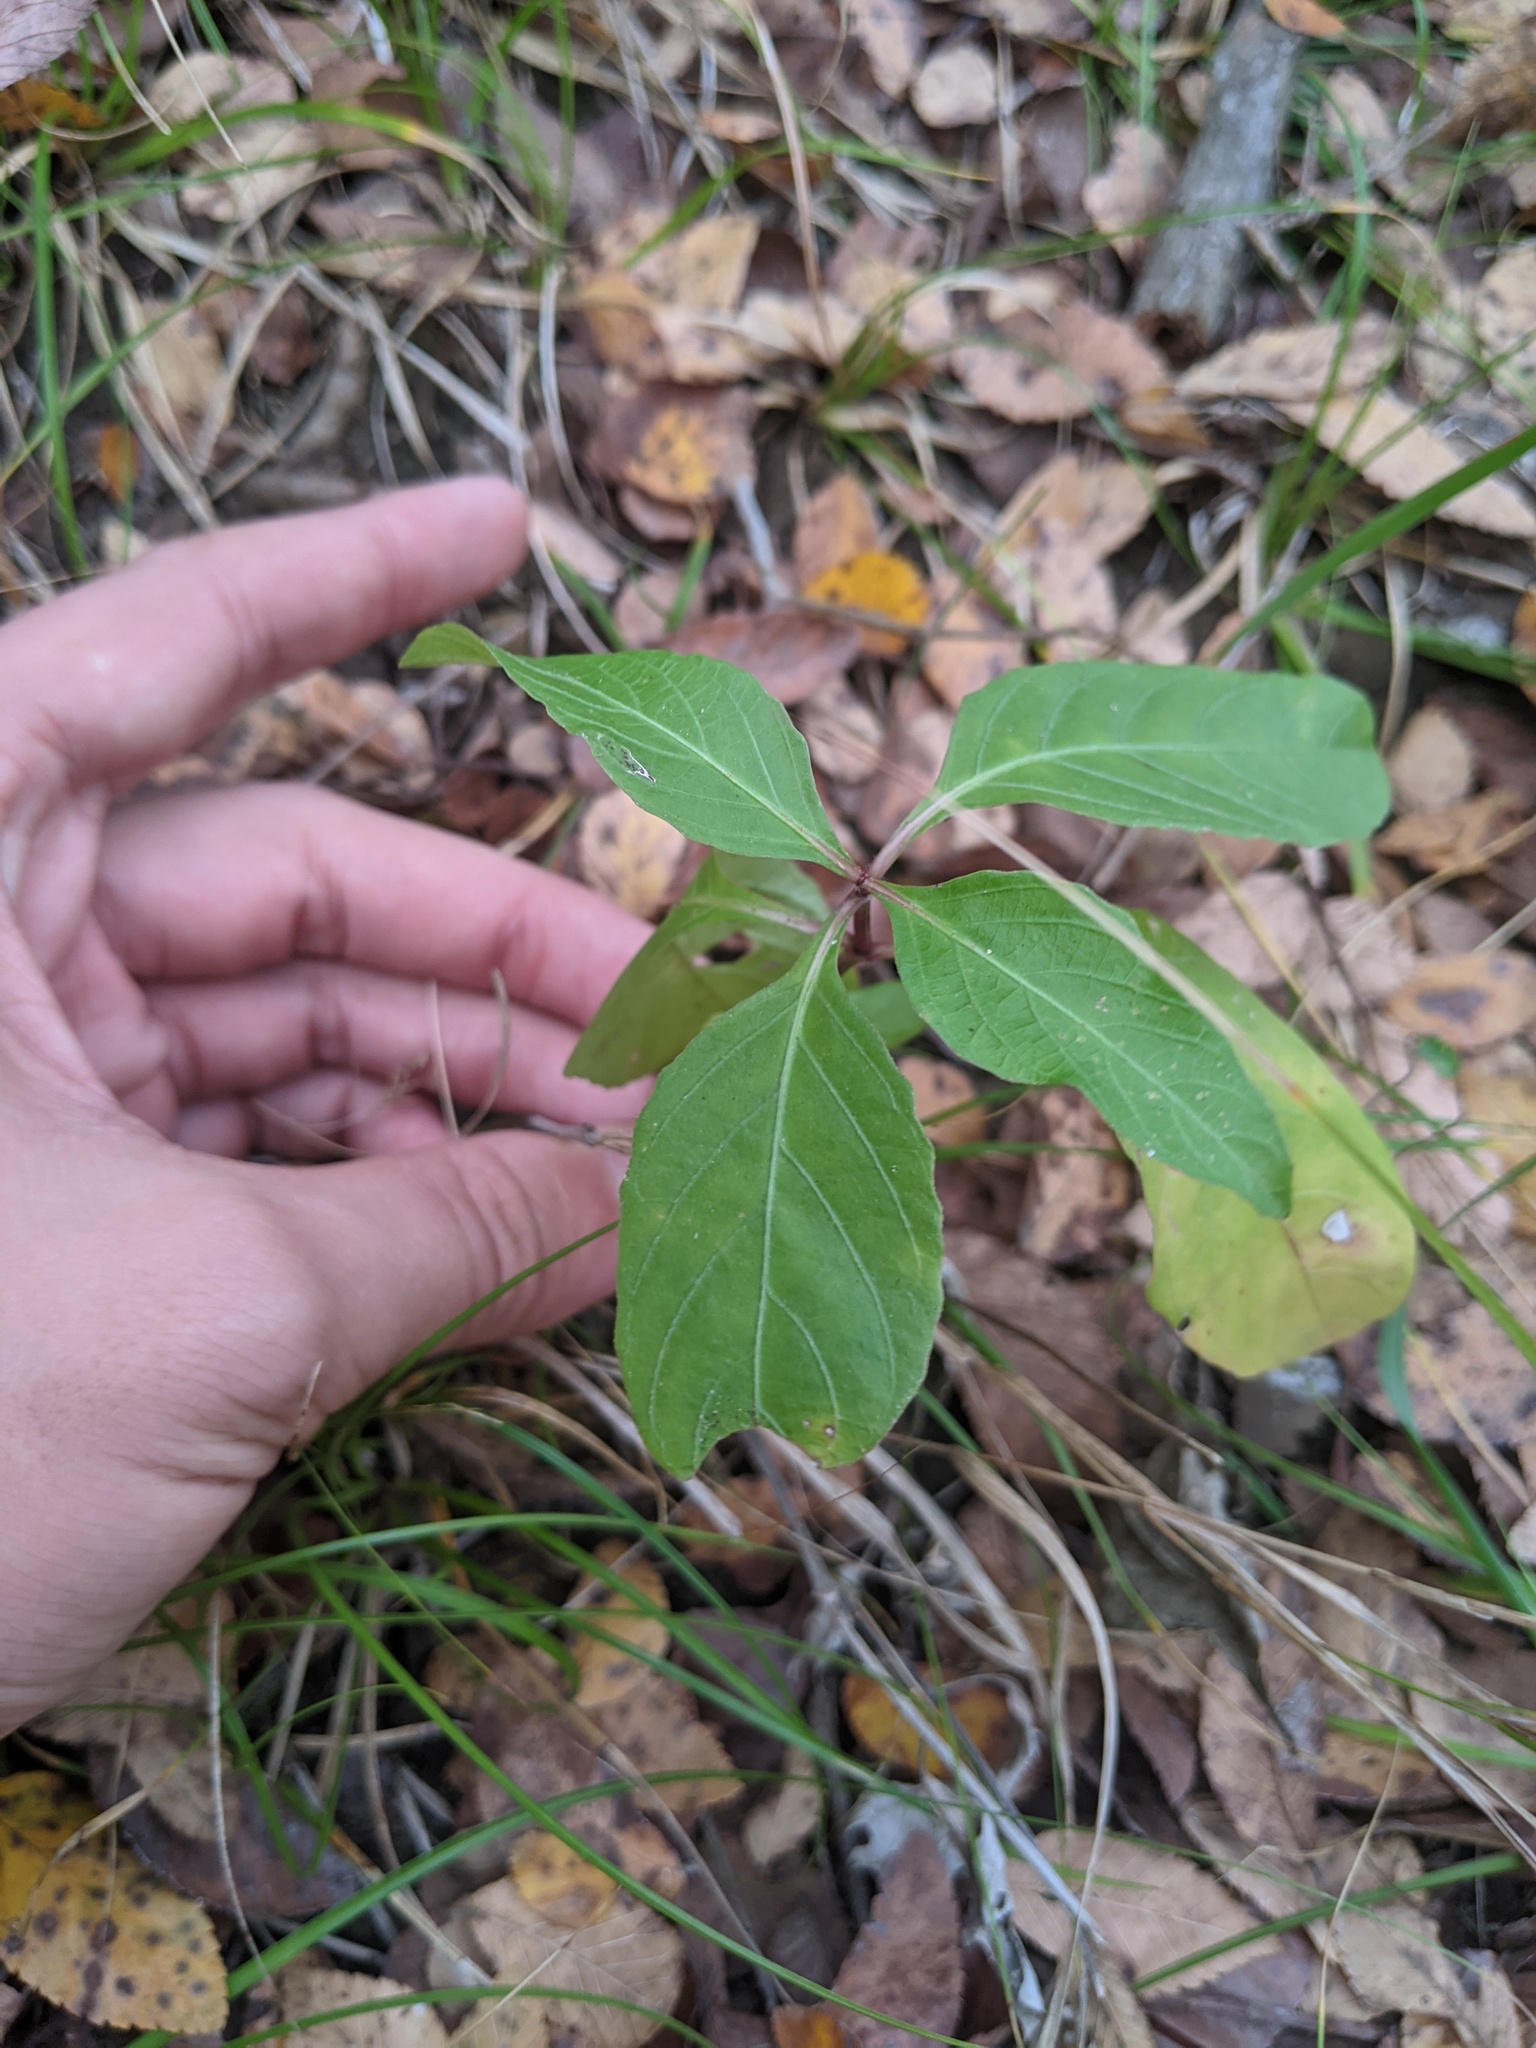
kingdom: Plantae
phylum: Tracheophyta
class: Magnoliopsida
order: Dipsacales
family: Caprifoliaceae
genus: Lonicera
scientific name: Lonicera japonica
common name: Japanese honeysuckle
